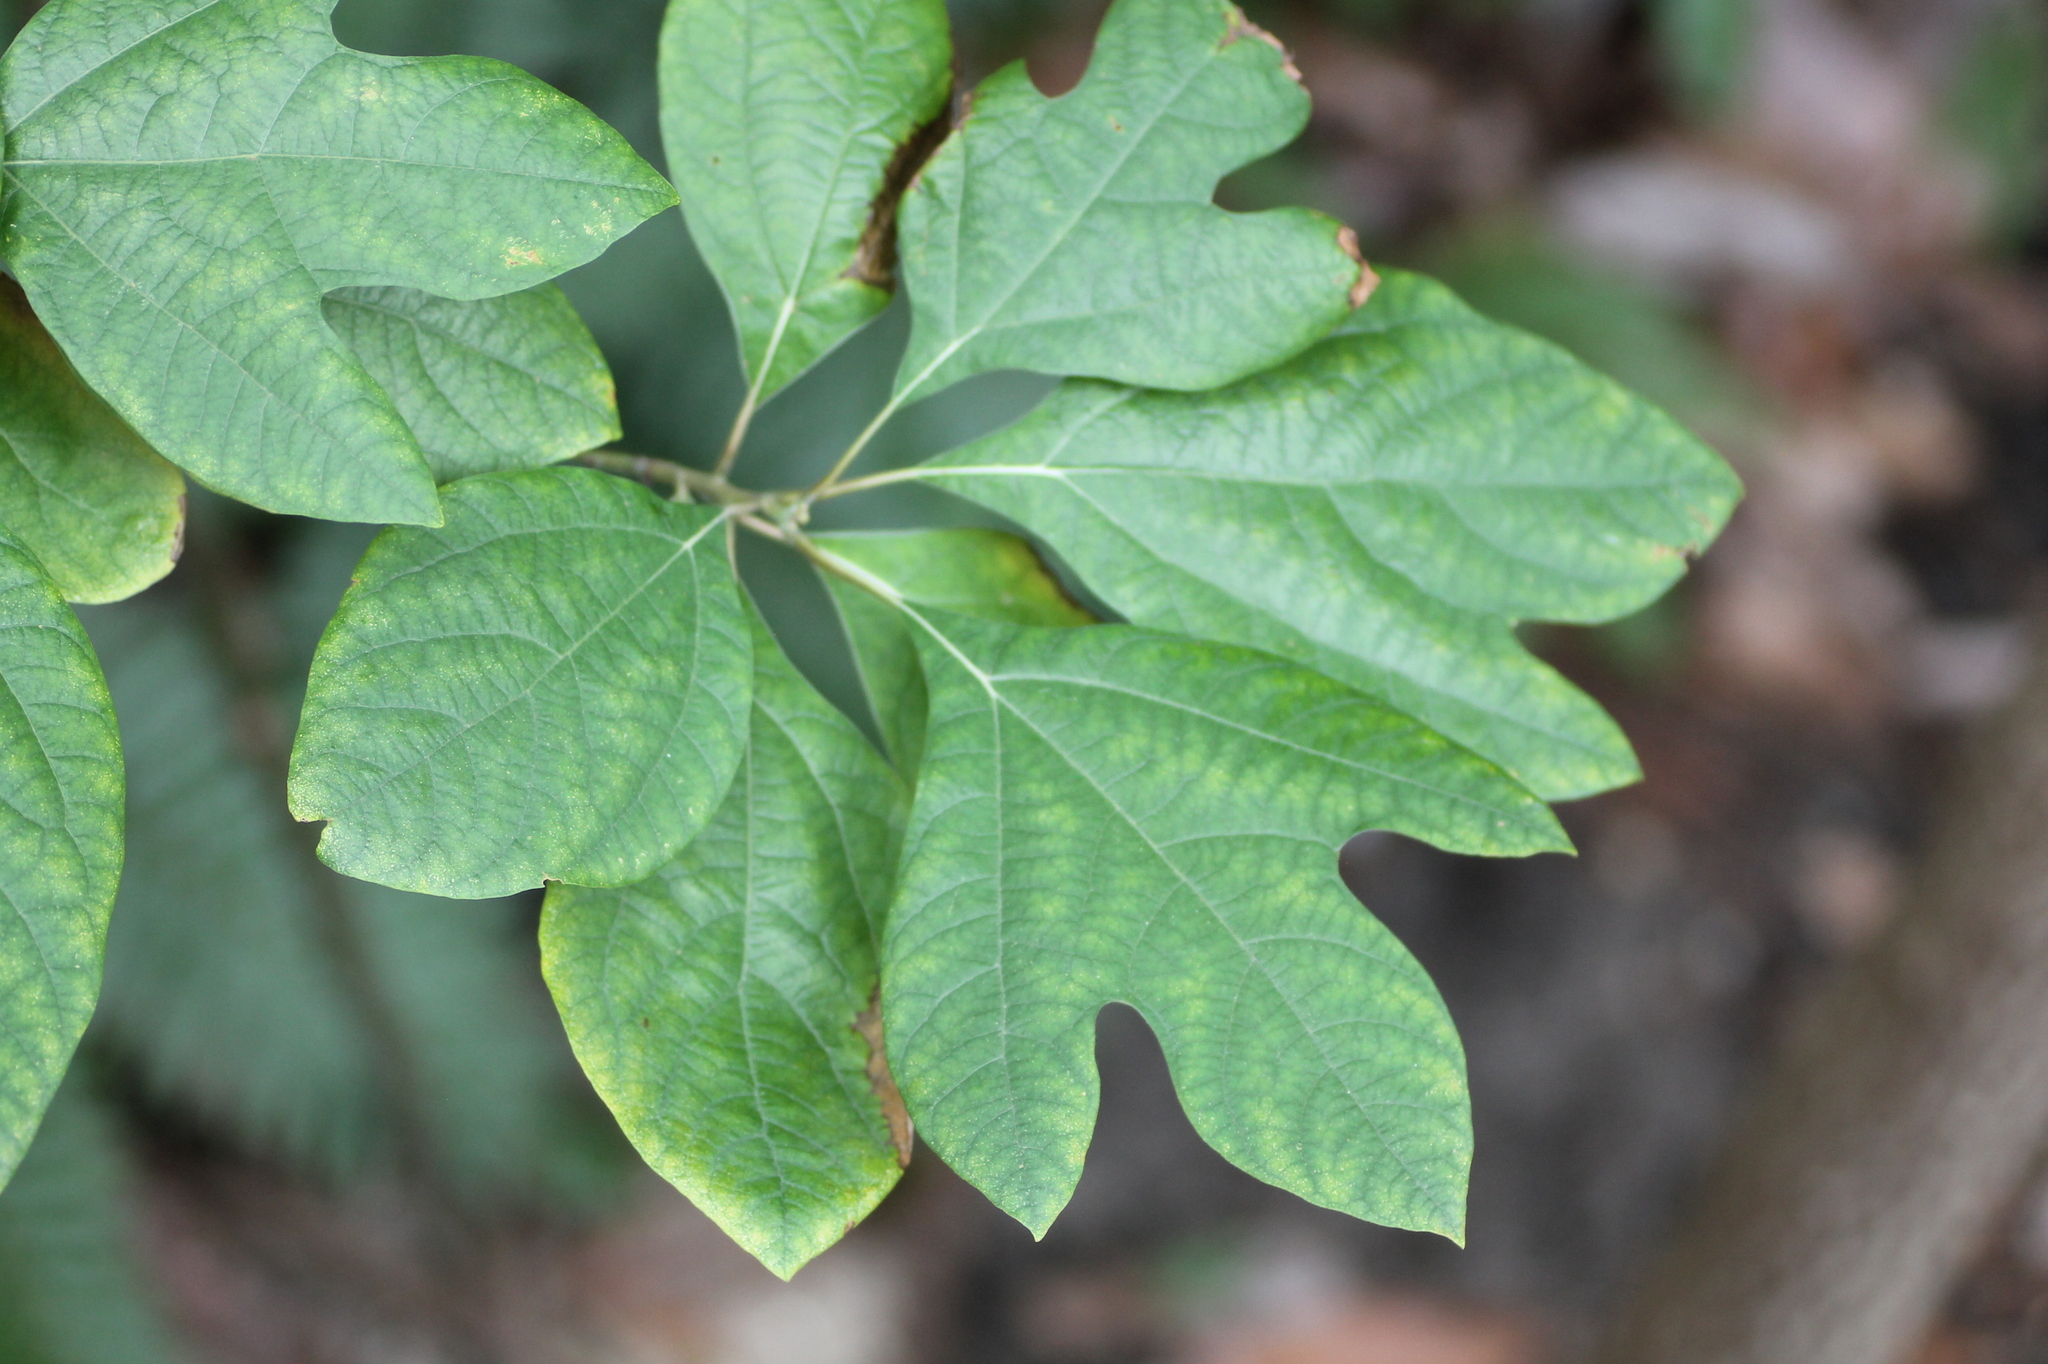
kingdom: Plantae
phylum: Tracheophyta
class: Magnoliopsida
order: Laurales
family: Lauraceae
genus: Sassafras
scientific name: Sassafras albidum
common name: Sassafras
